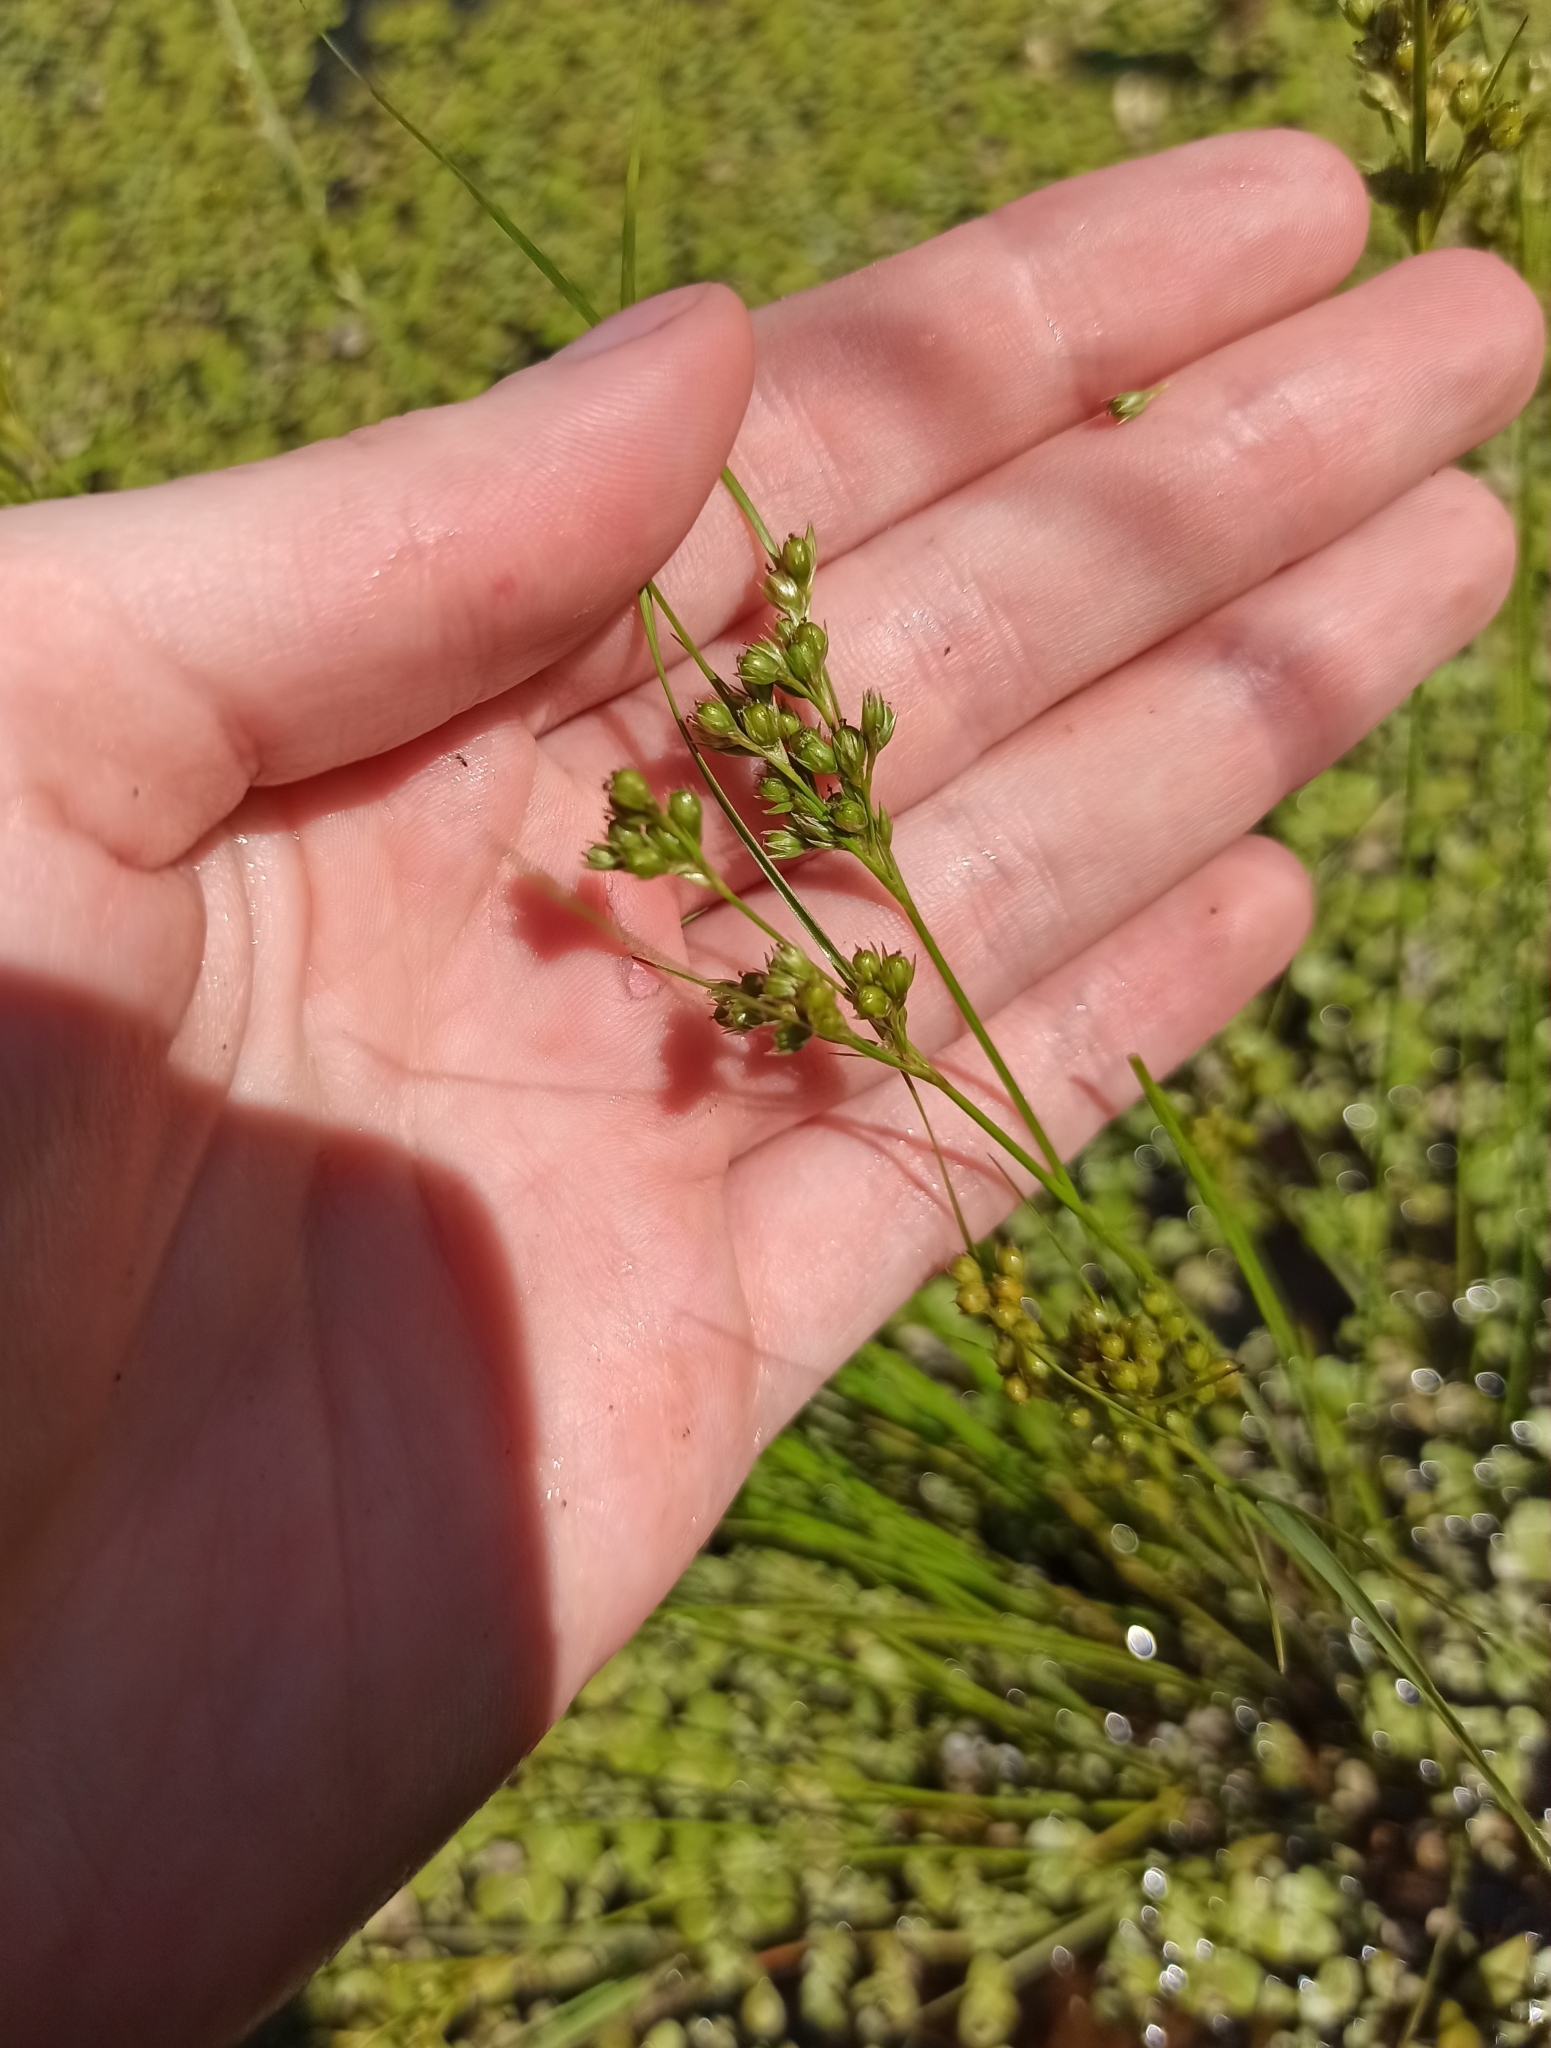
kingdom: Plantae
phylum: Tracheophyta
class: Liliopsida
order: Poales
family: Juncaceae
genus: Juncus
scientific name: Juncus tenuis
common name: Slender rush
